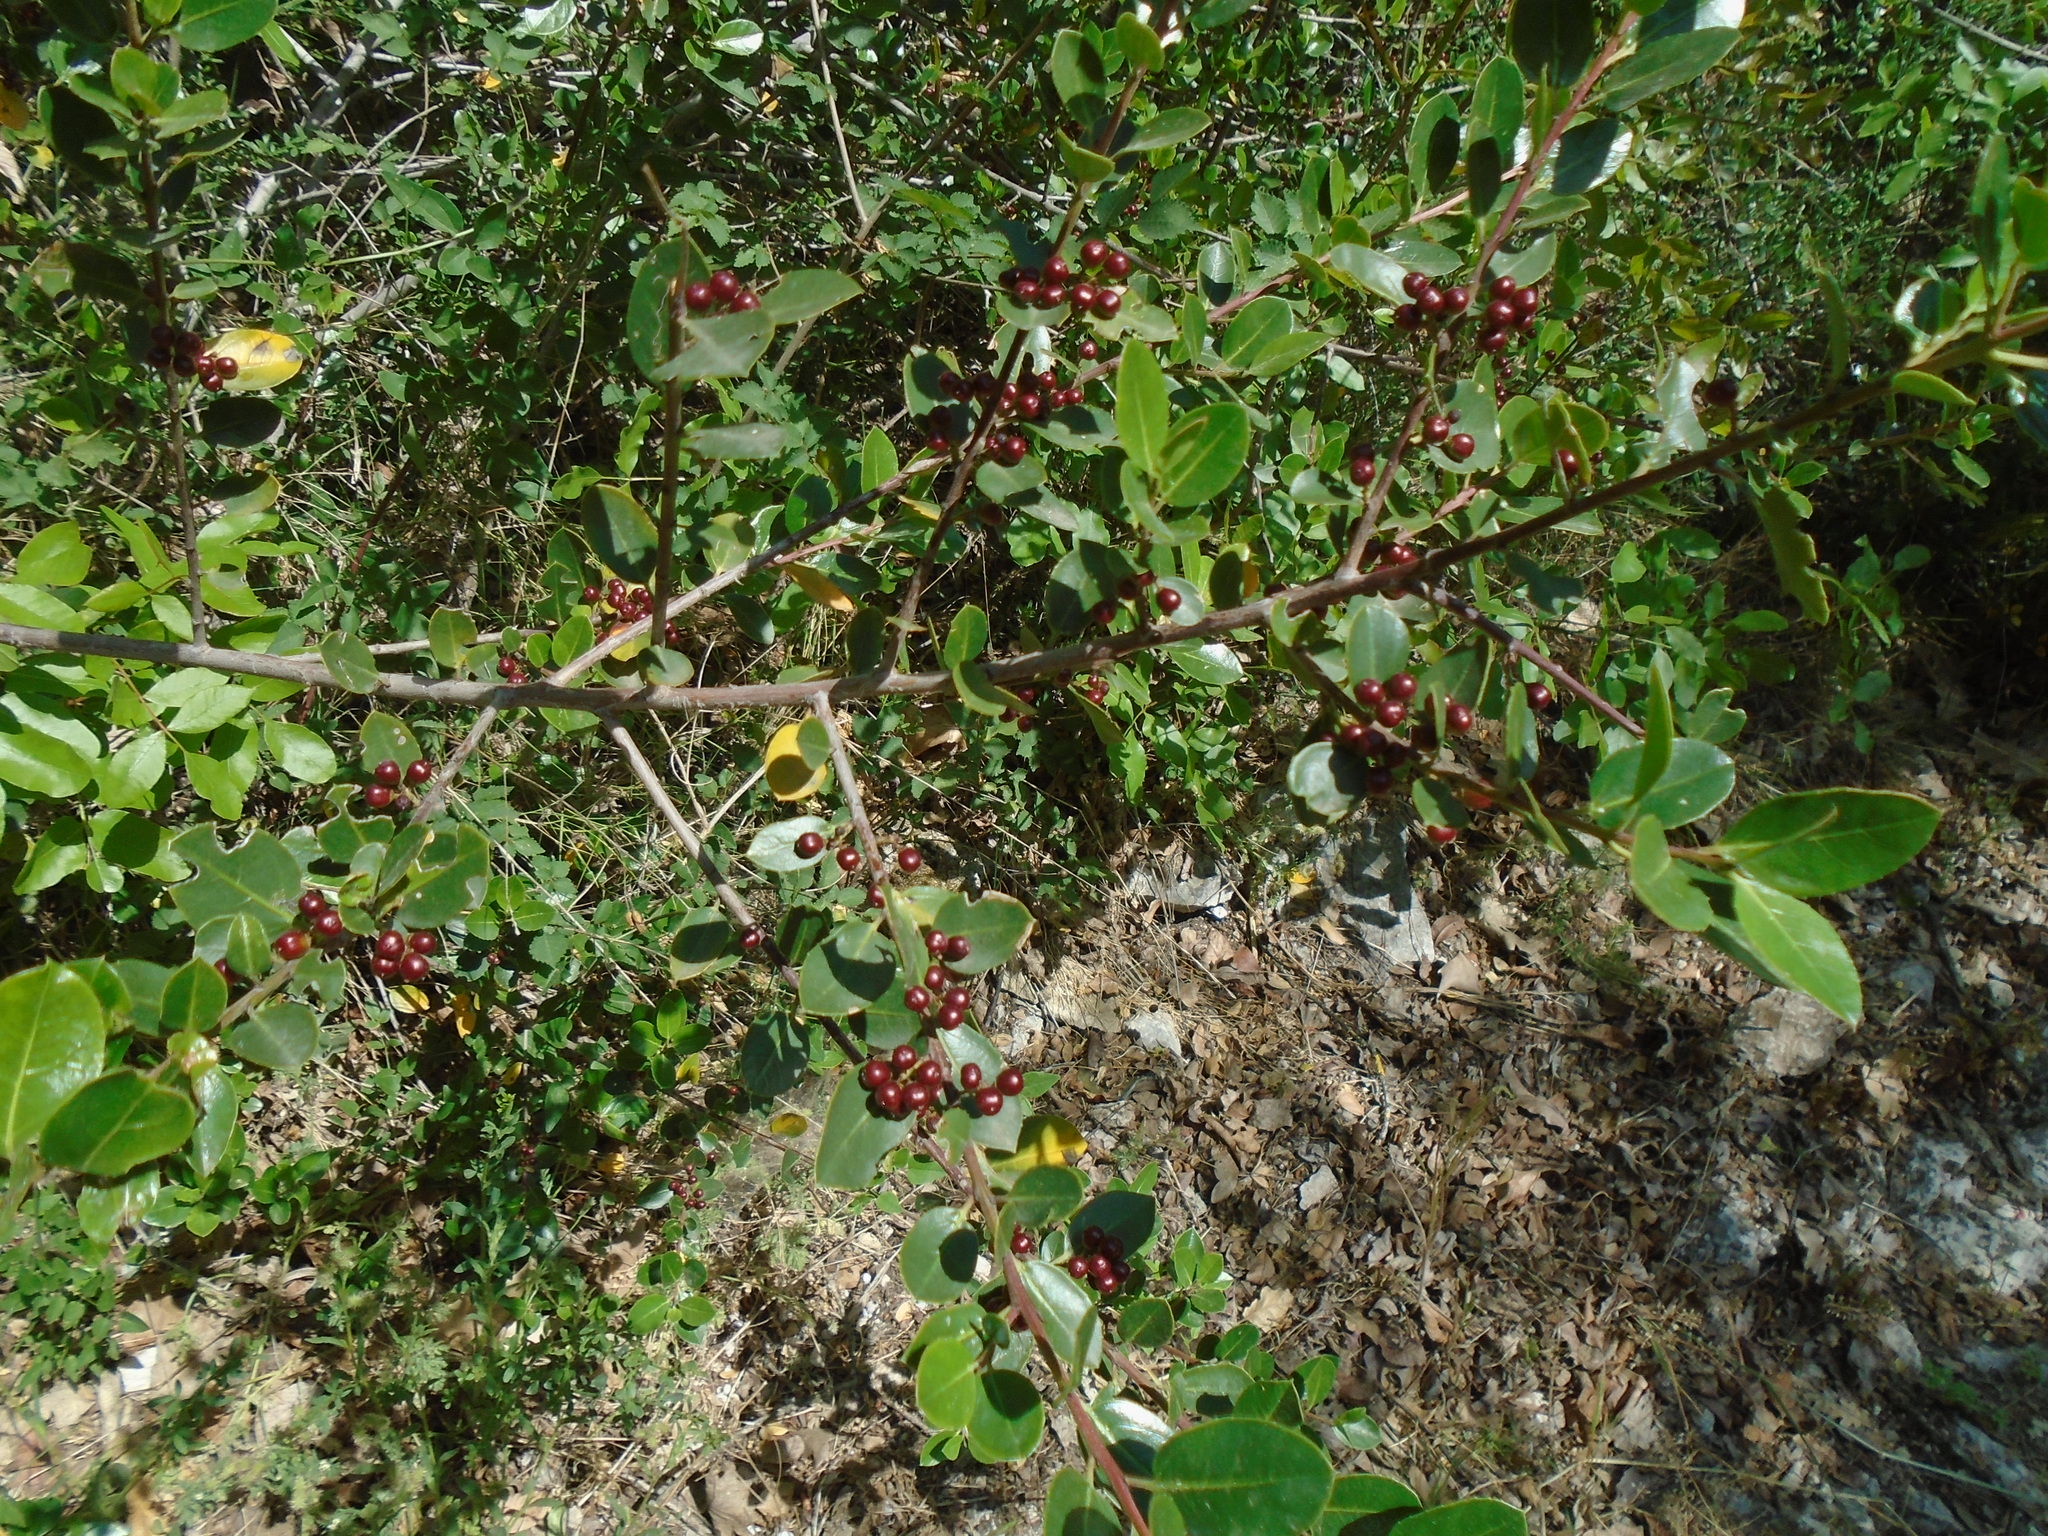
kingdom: Plantae
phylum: Tracheophyta
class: Magnoliopsida
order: Rosales
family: Rhamnaceae
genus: Rhamnus
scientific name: Rhamnus alaternus
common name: Mediterranean buckthorn
